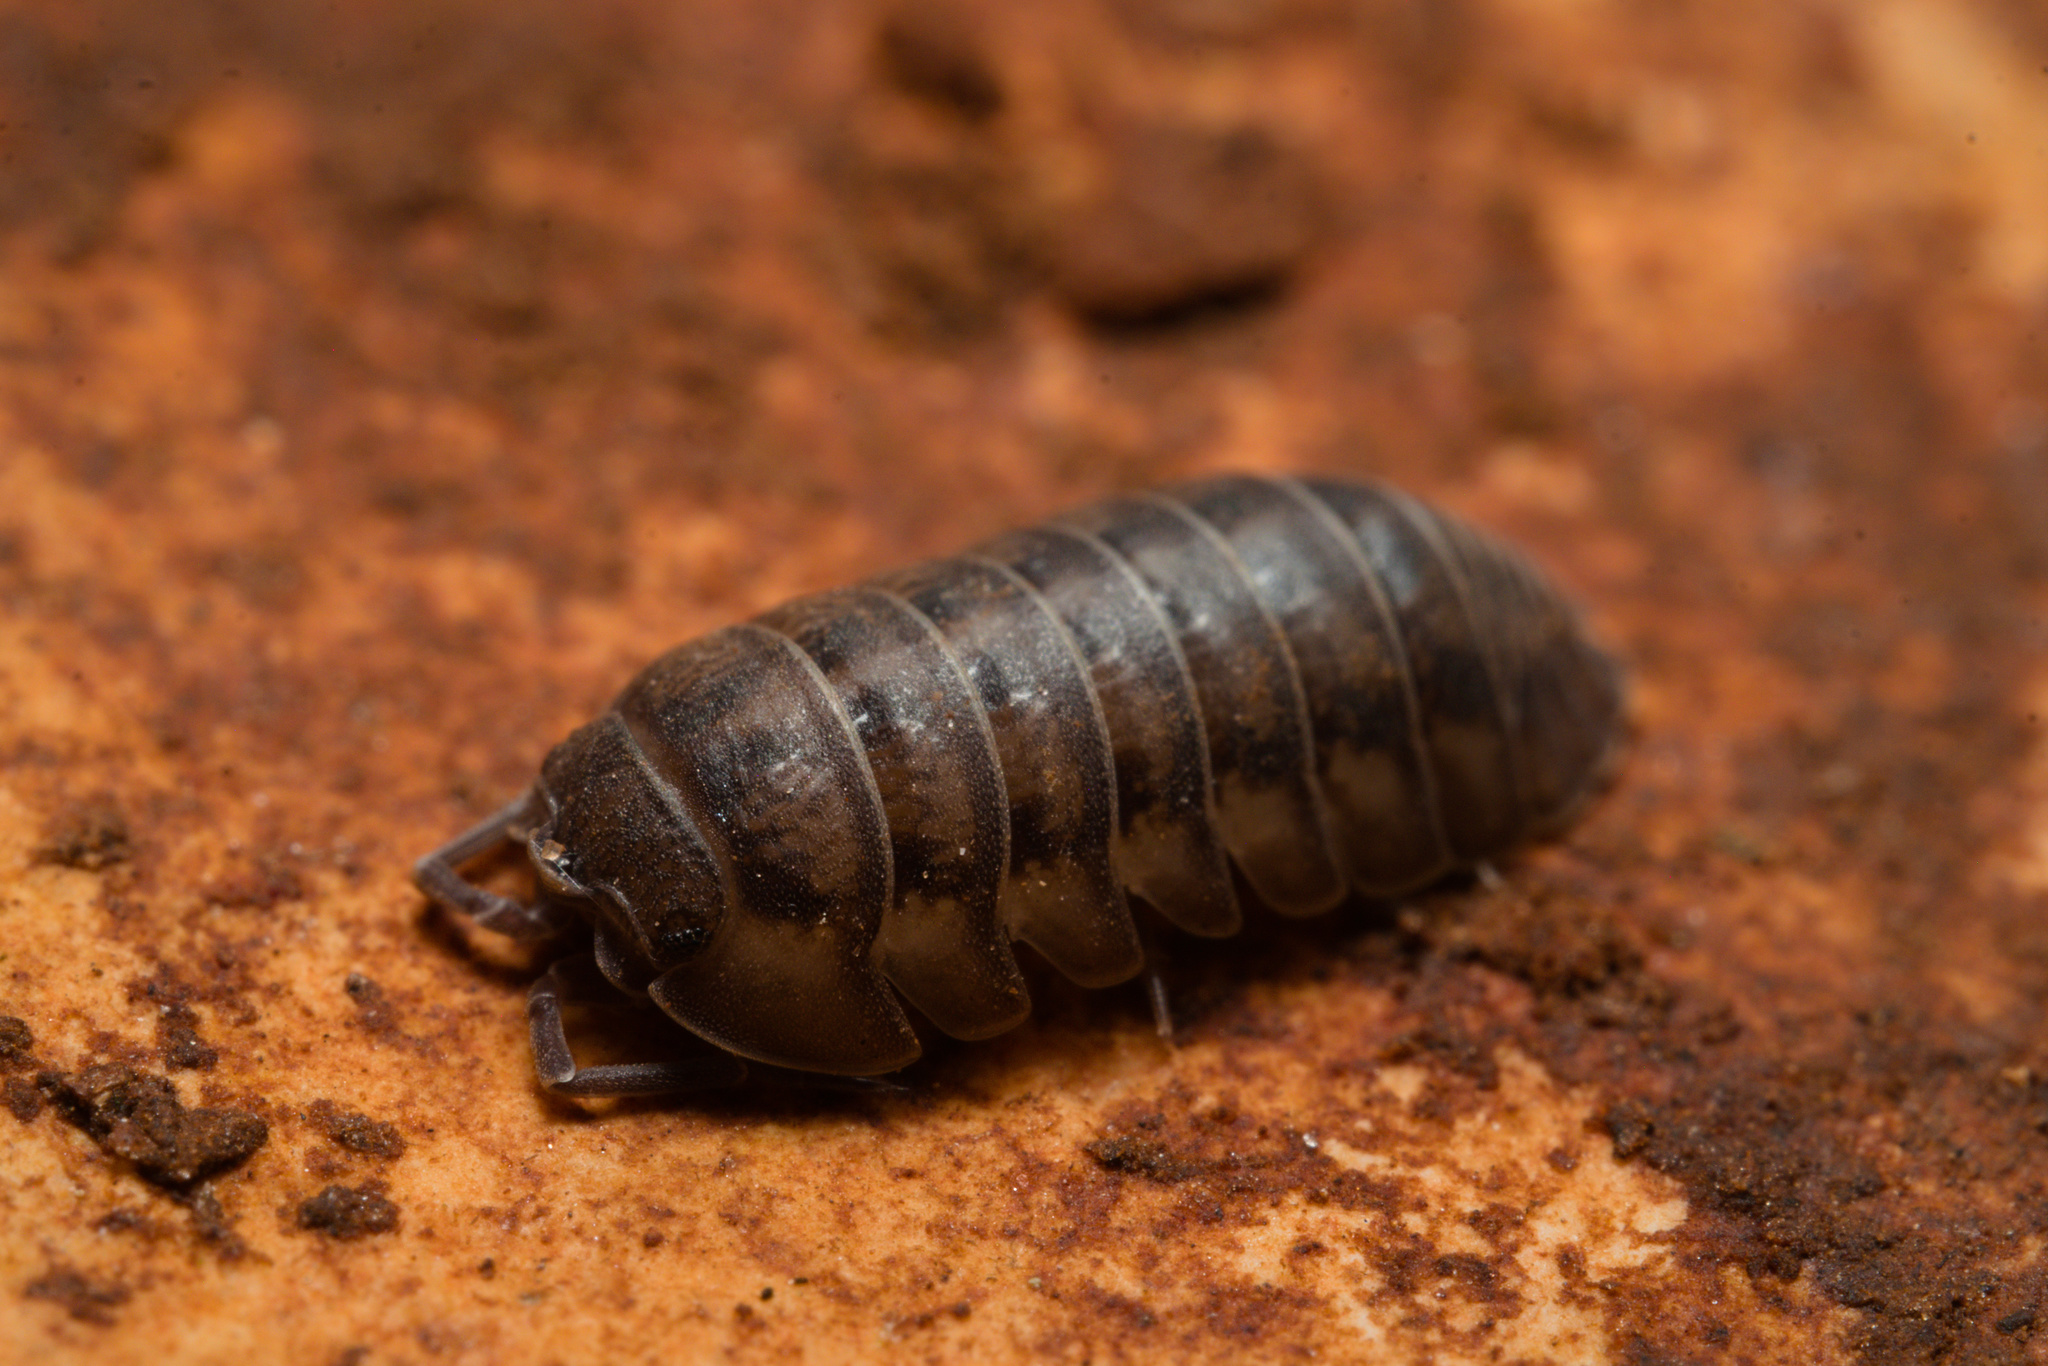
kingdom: Animalia
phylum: Arthropoda
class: Malacostraca
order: Isopoda
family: Armadillidiidae
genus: Armadillidium
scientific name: Armadillidium nasatum
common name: Isopod
